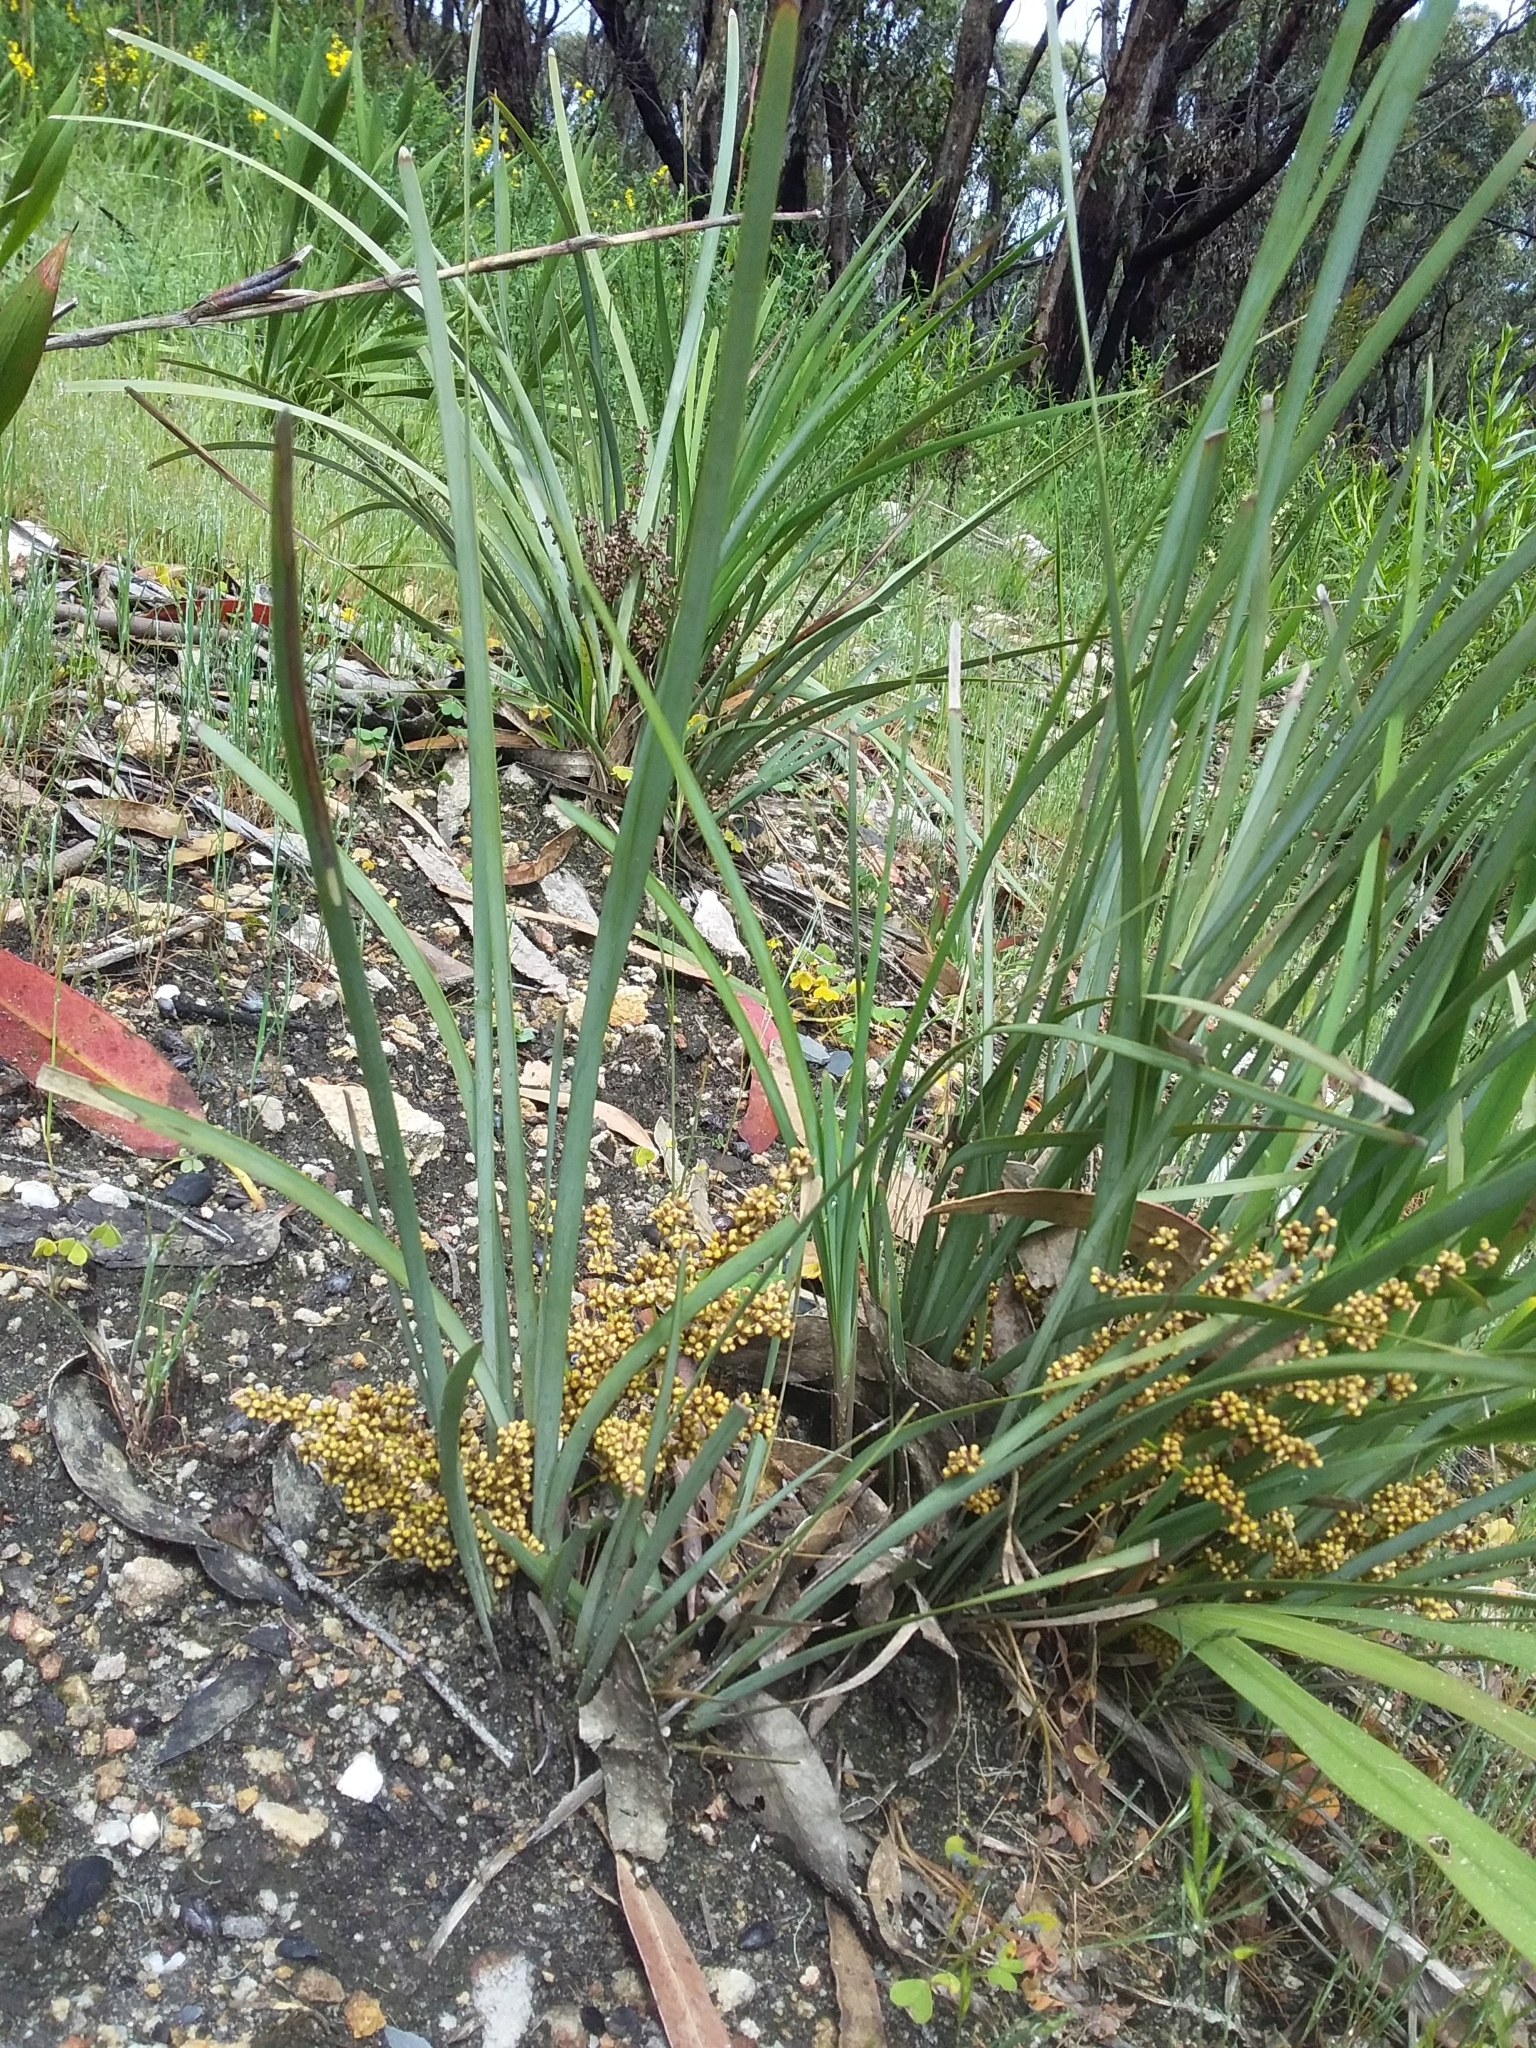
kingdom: Plantae
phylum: Tracheophyta
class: Liliopsida
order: Asparagales
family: Asparagaceae
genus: Lomandra
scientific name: Lomandra multiflora
